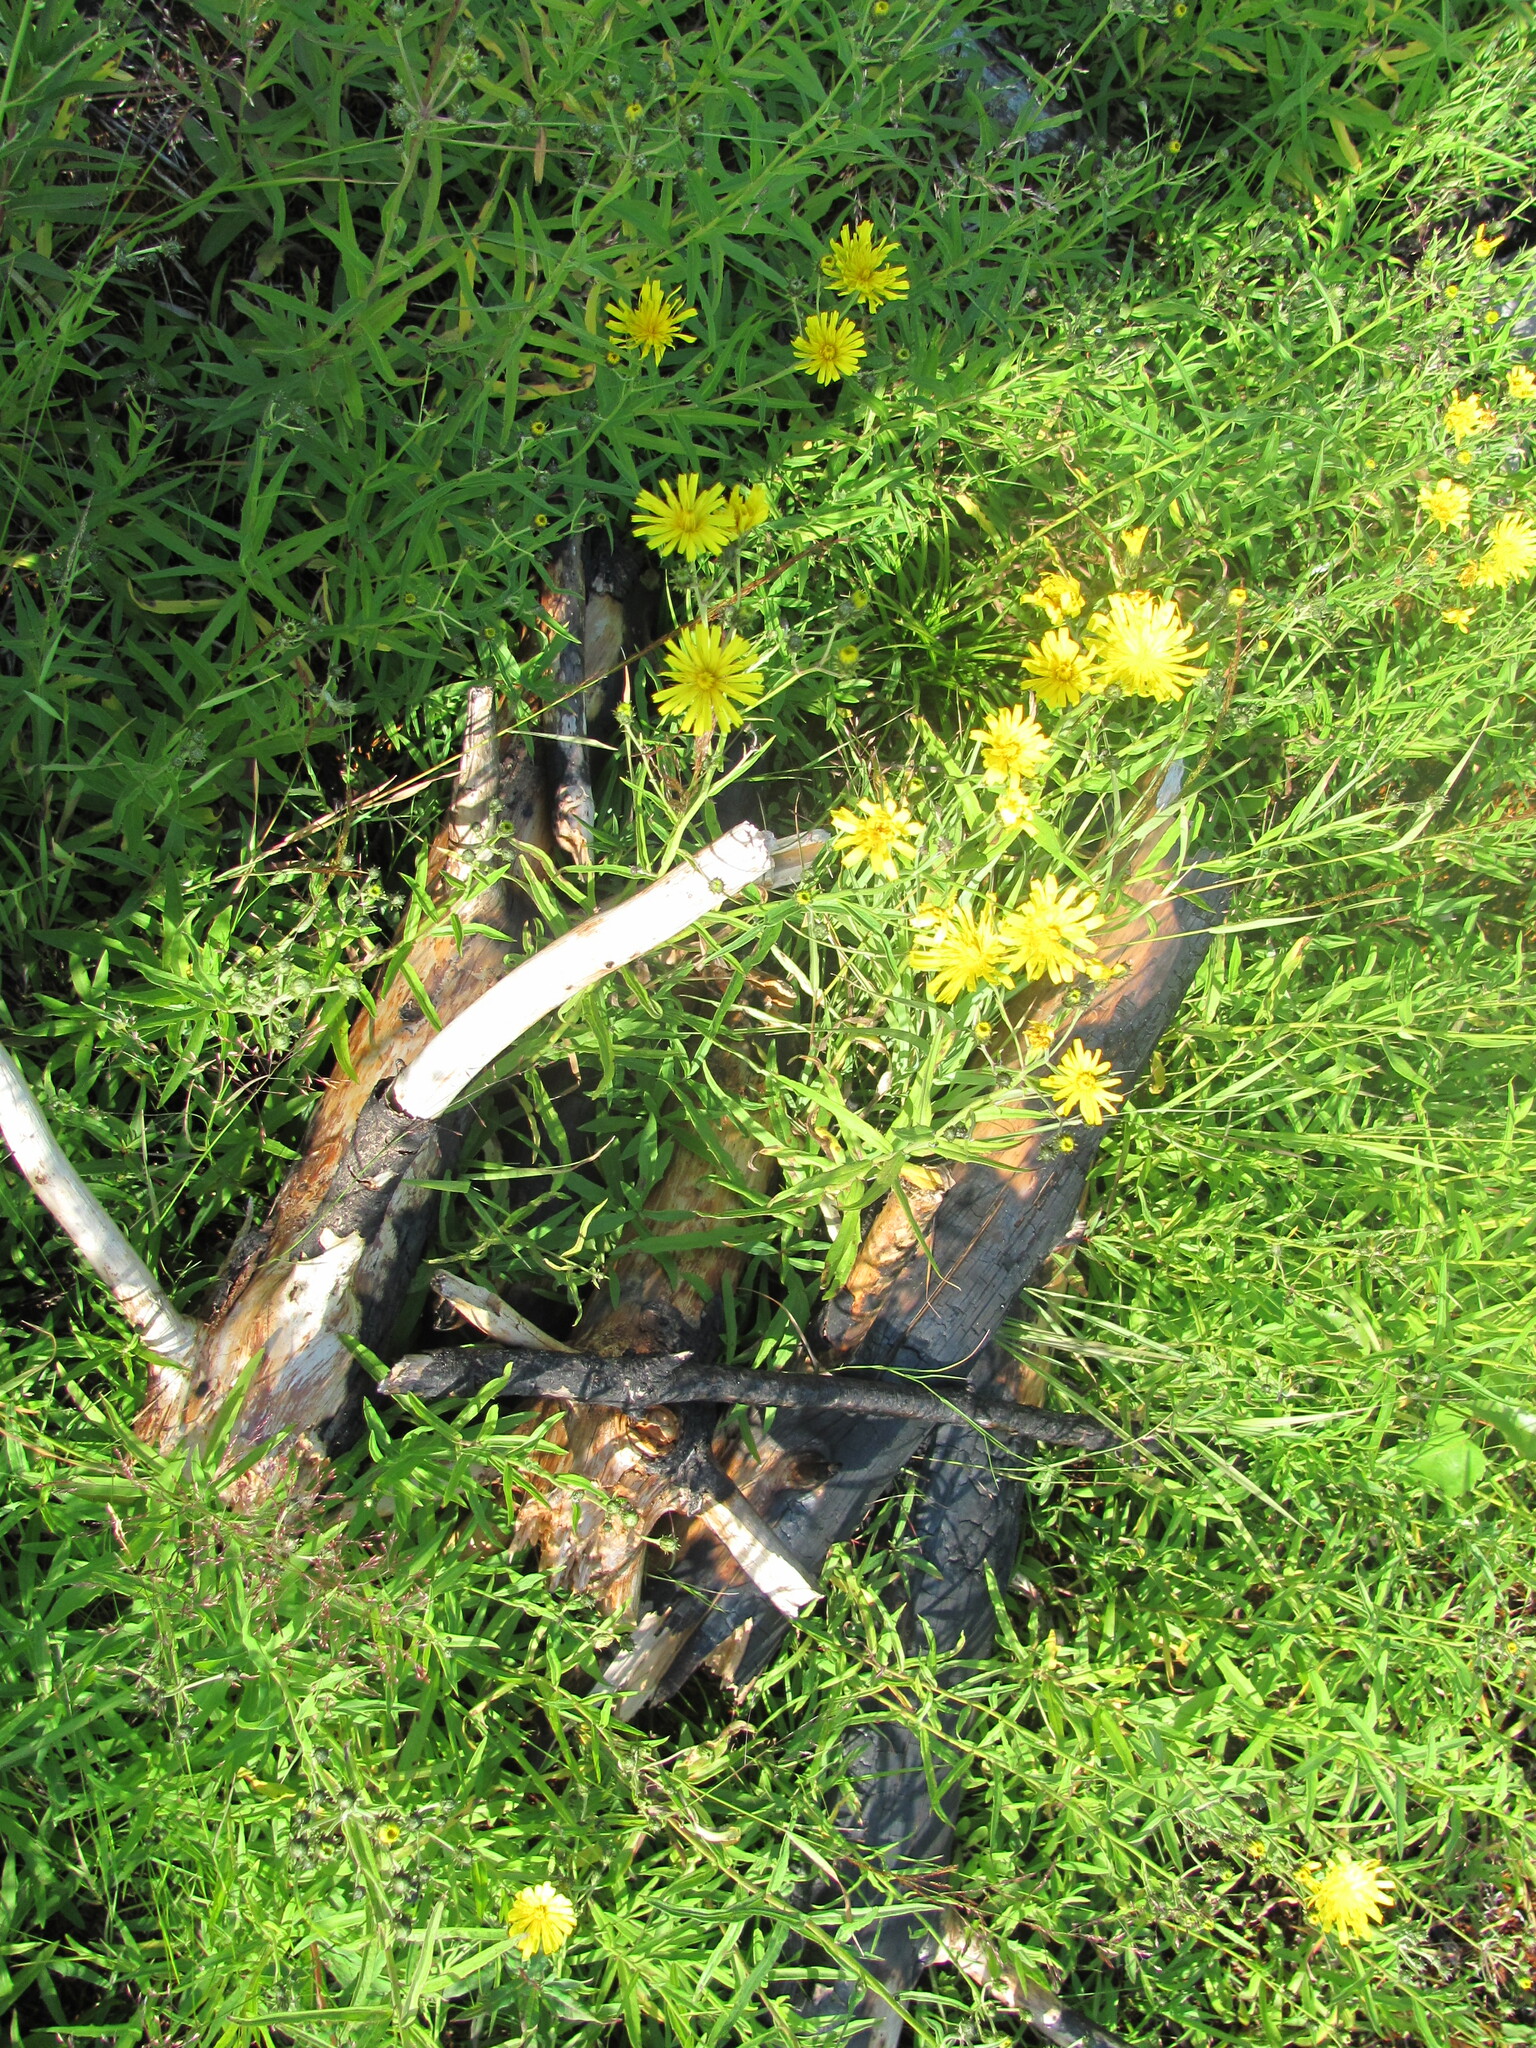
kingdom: Plantae
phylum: Tracheophyta
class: Magnoliopsida
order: Asterales
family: Asteraceae
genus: Hieracium
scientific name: Hieracium umbellatum
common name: Northern hawkweed
